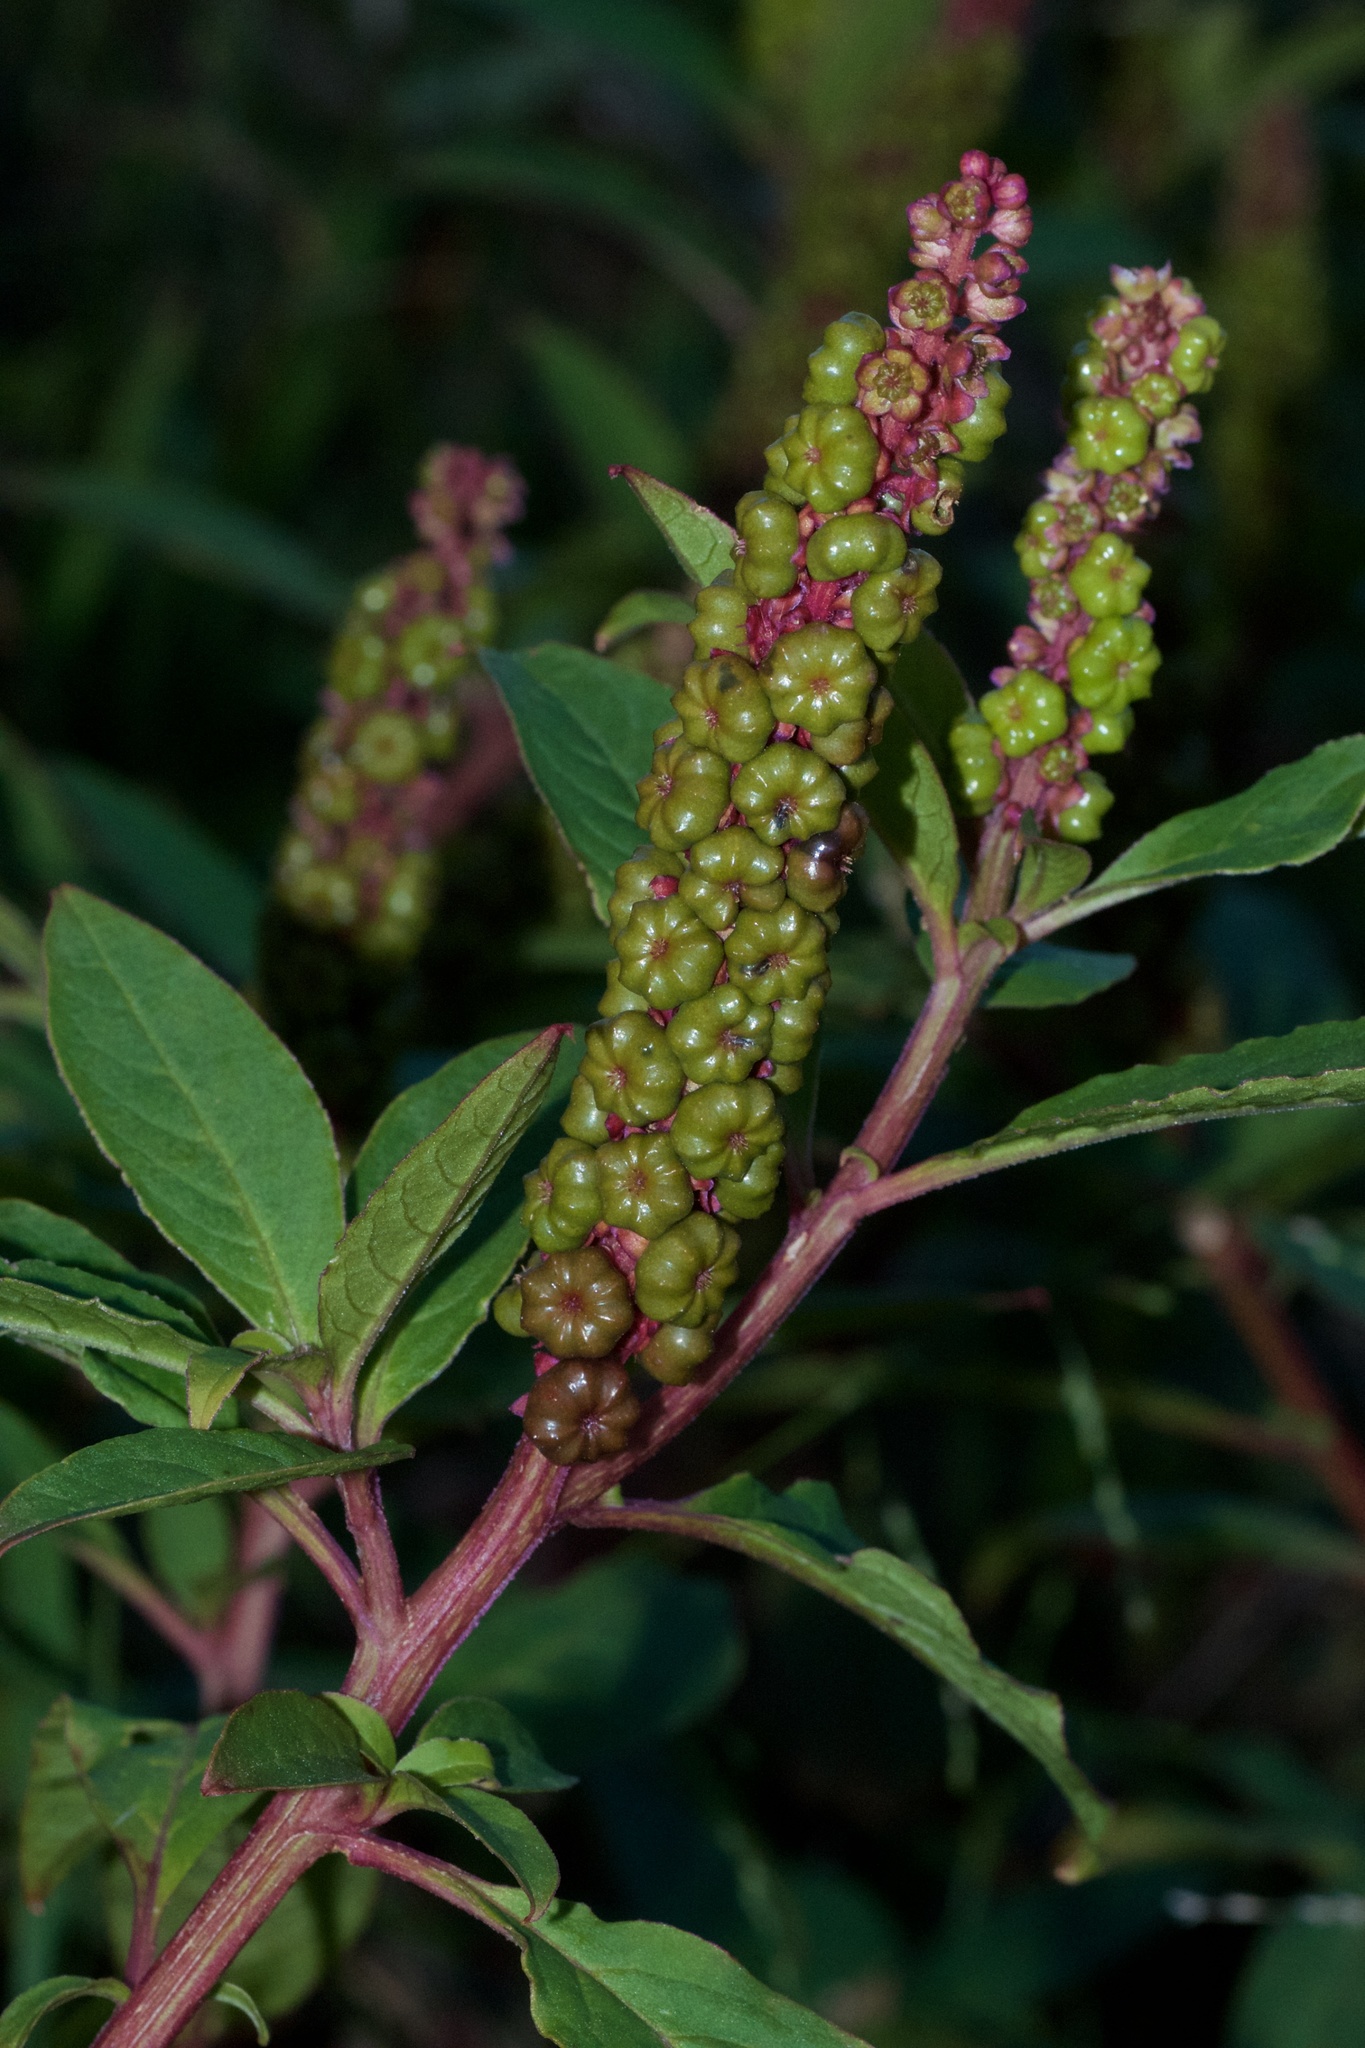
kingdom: Plantae
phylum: Tracheophyta
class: Magnoliopsida
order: Caryophyllales
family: Phytolaccaceae
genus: Phytolacca
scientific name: Phytolacca icosandra
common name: Button pokeweed
